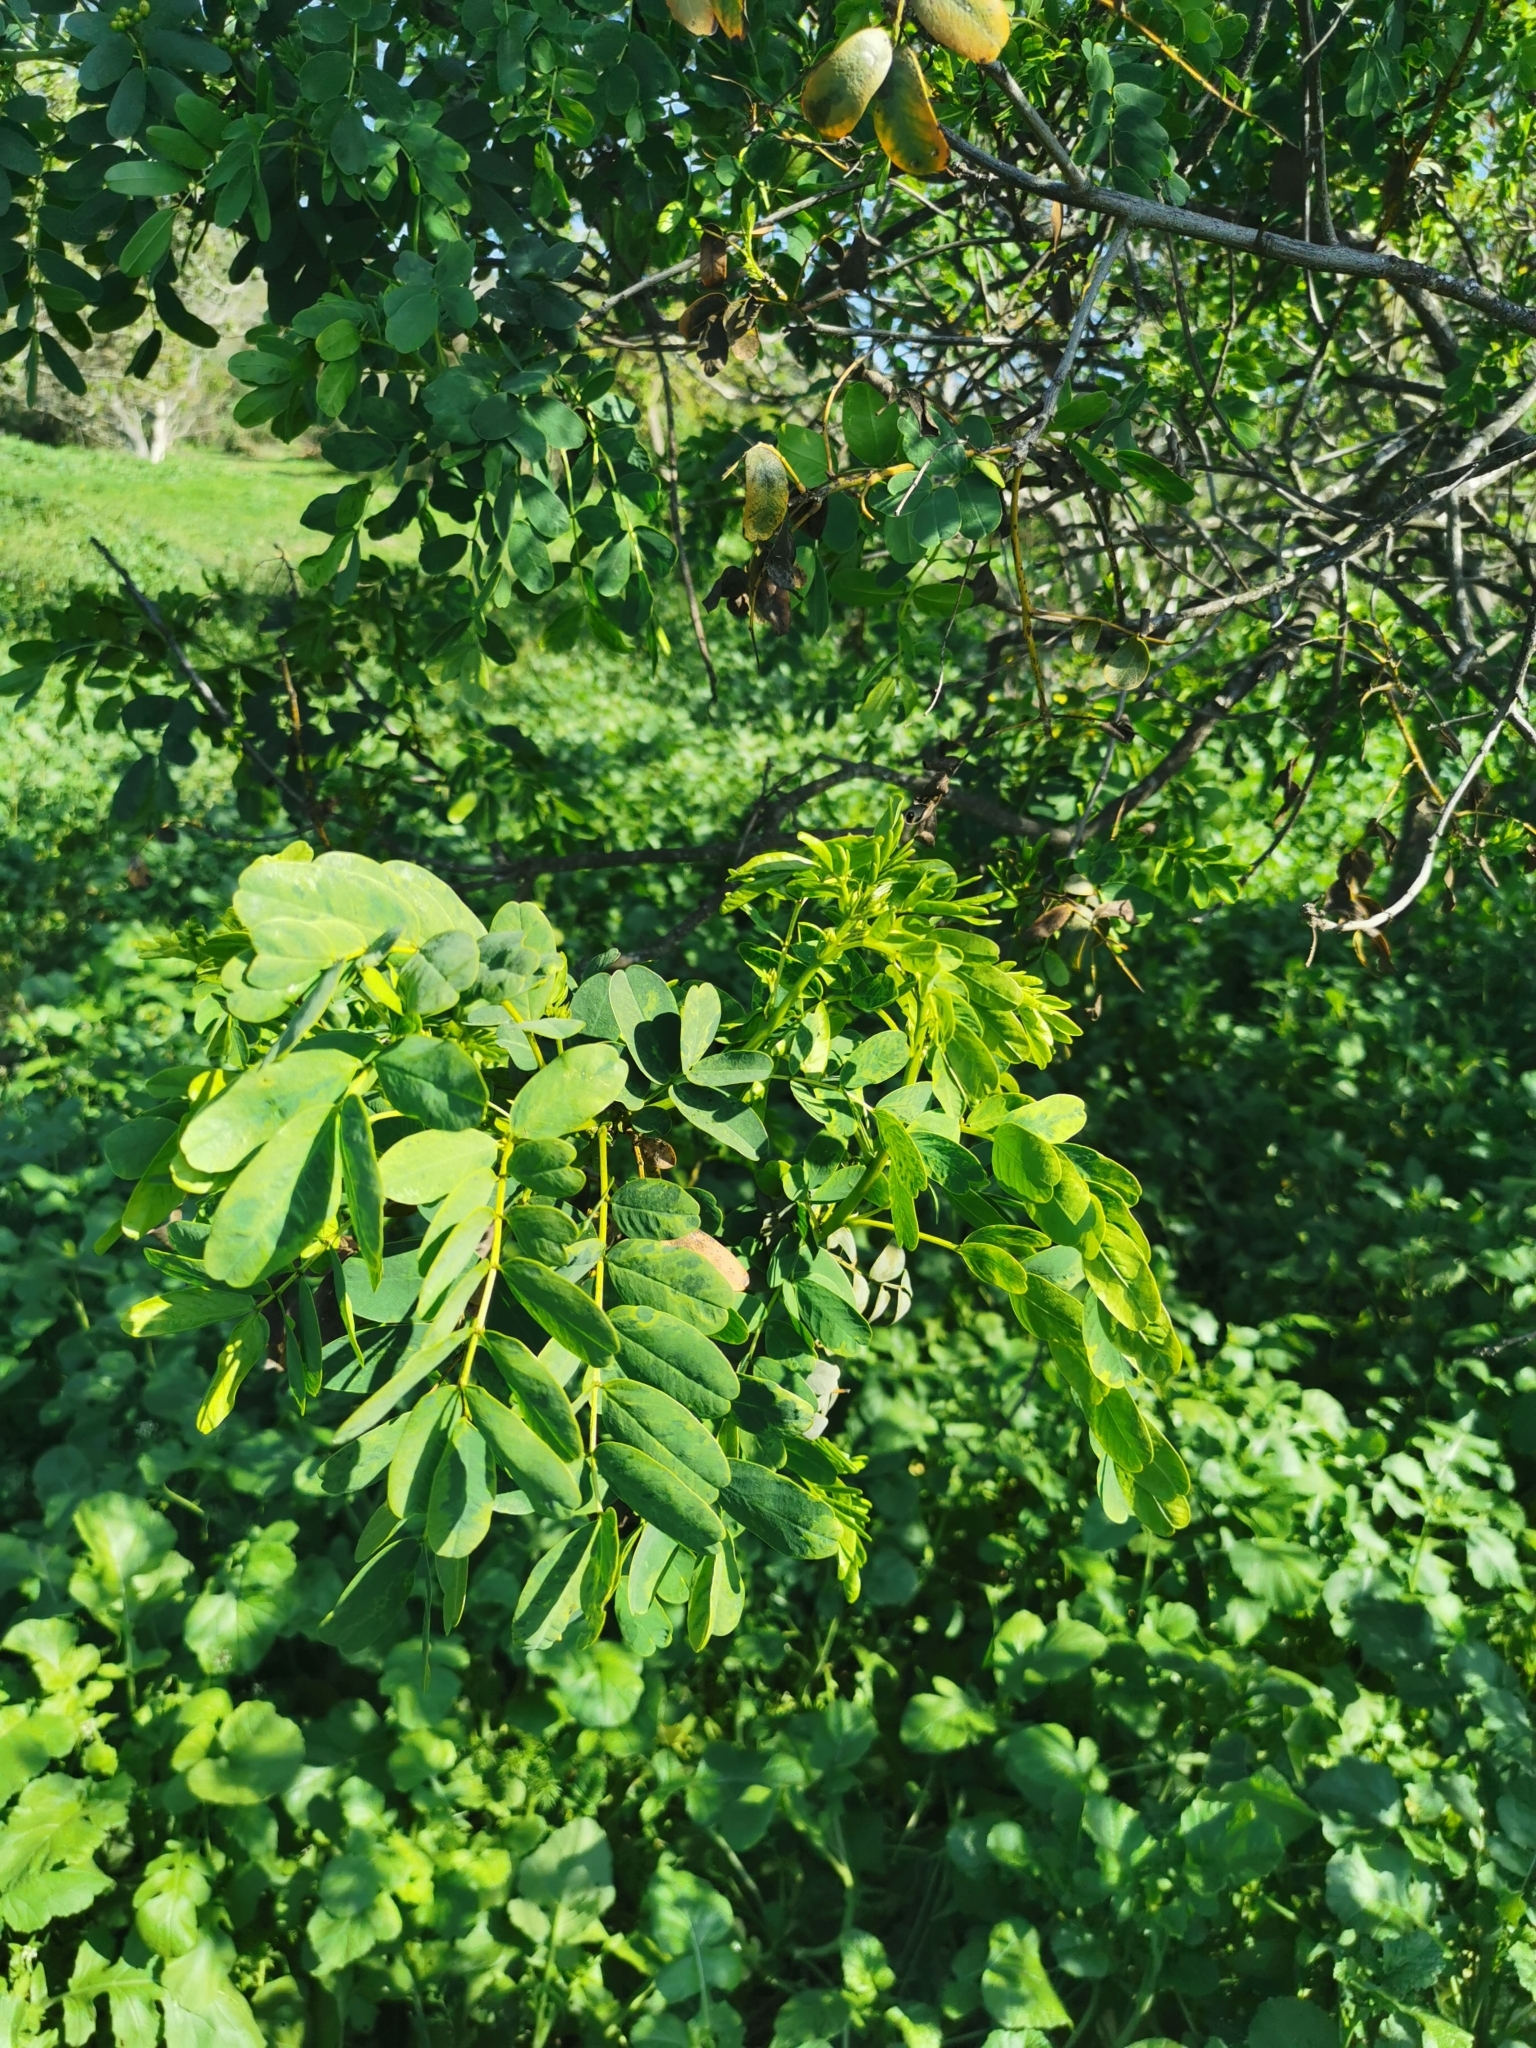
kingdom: Plantae
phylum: Tracheophyta
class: Magnoliopsida
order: Fabales
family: Fabaceae
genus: Senna
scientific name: Senna candolleana
